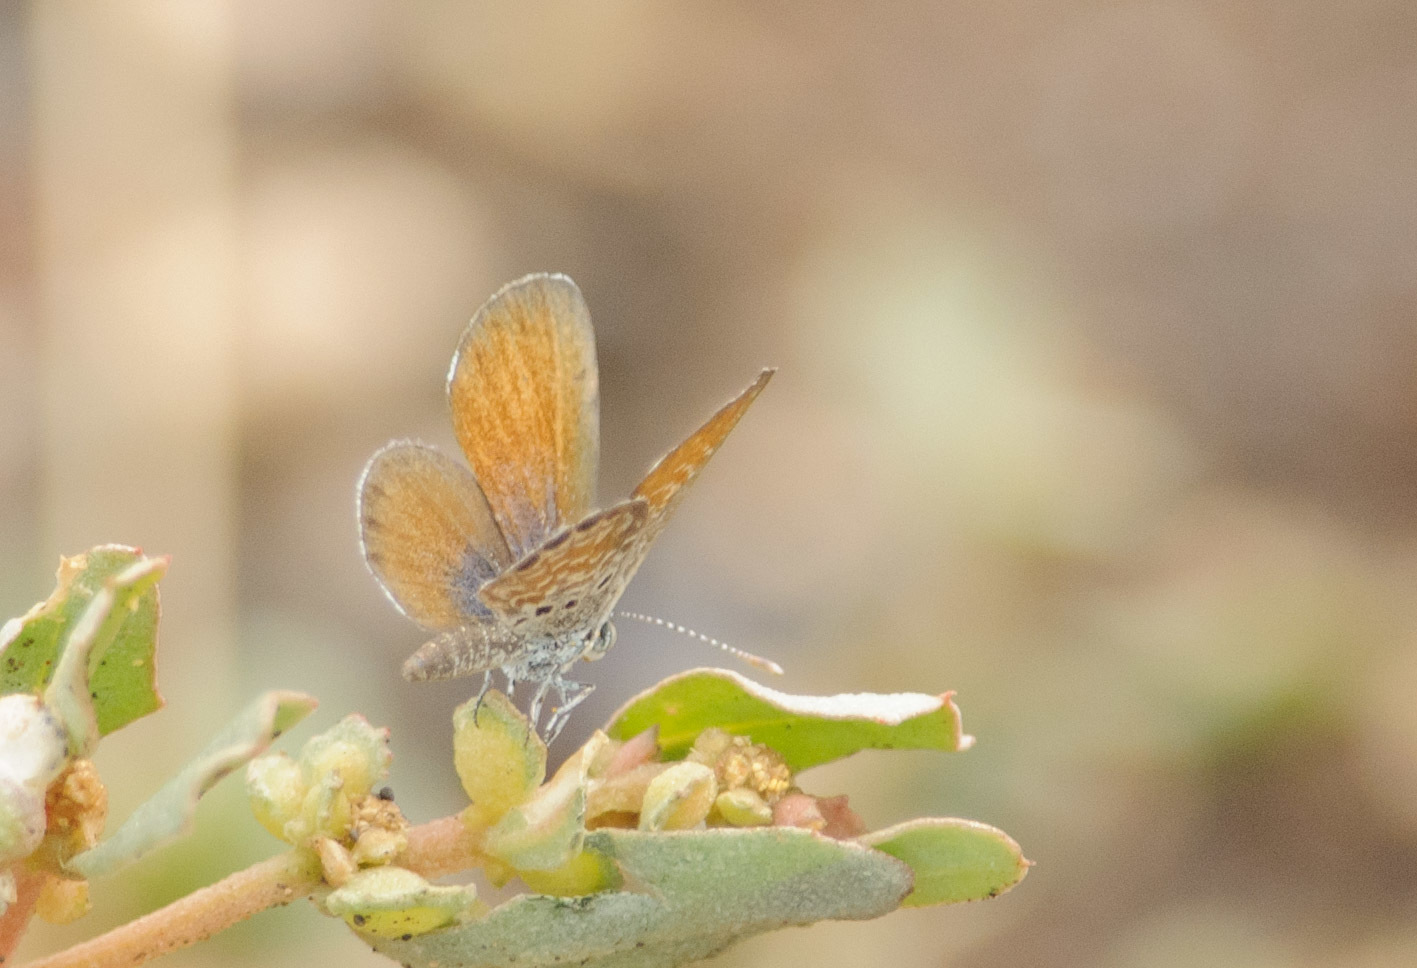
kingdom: Animalia
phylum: Arthropoda
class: Insecta
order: Lepidoptera
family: Lycaenidae
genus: Brephidium
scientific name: Brephidium exilis
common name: Pygmy blue
